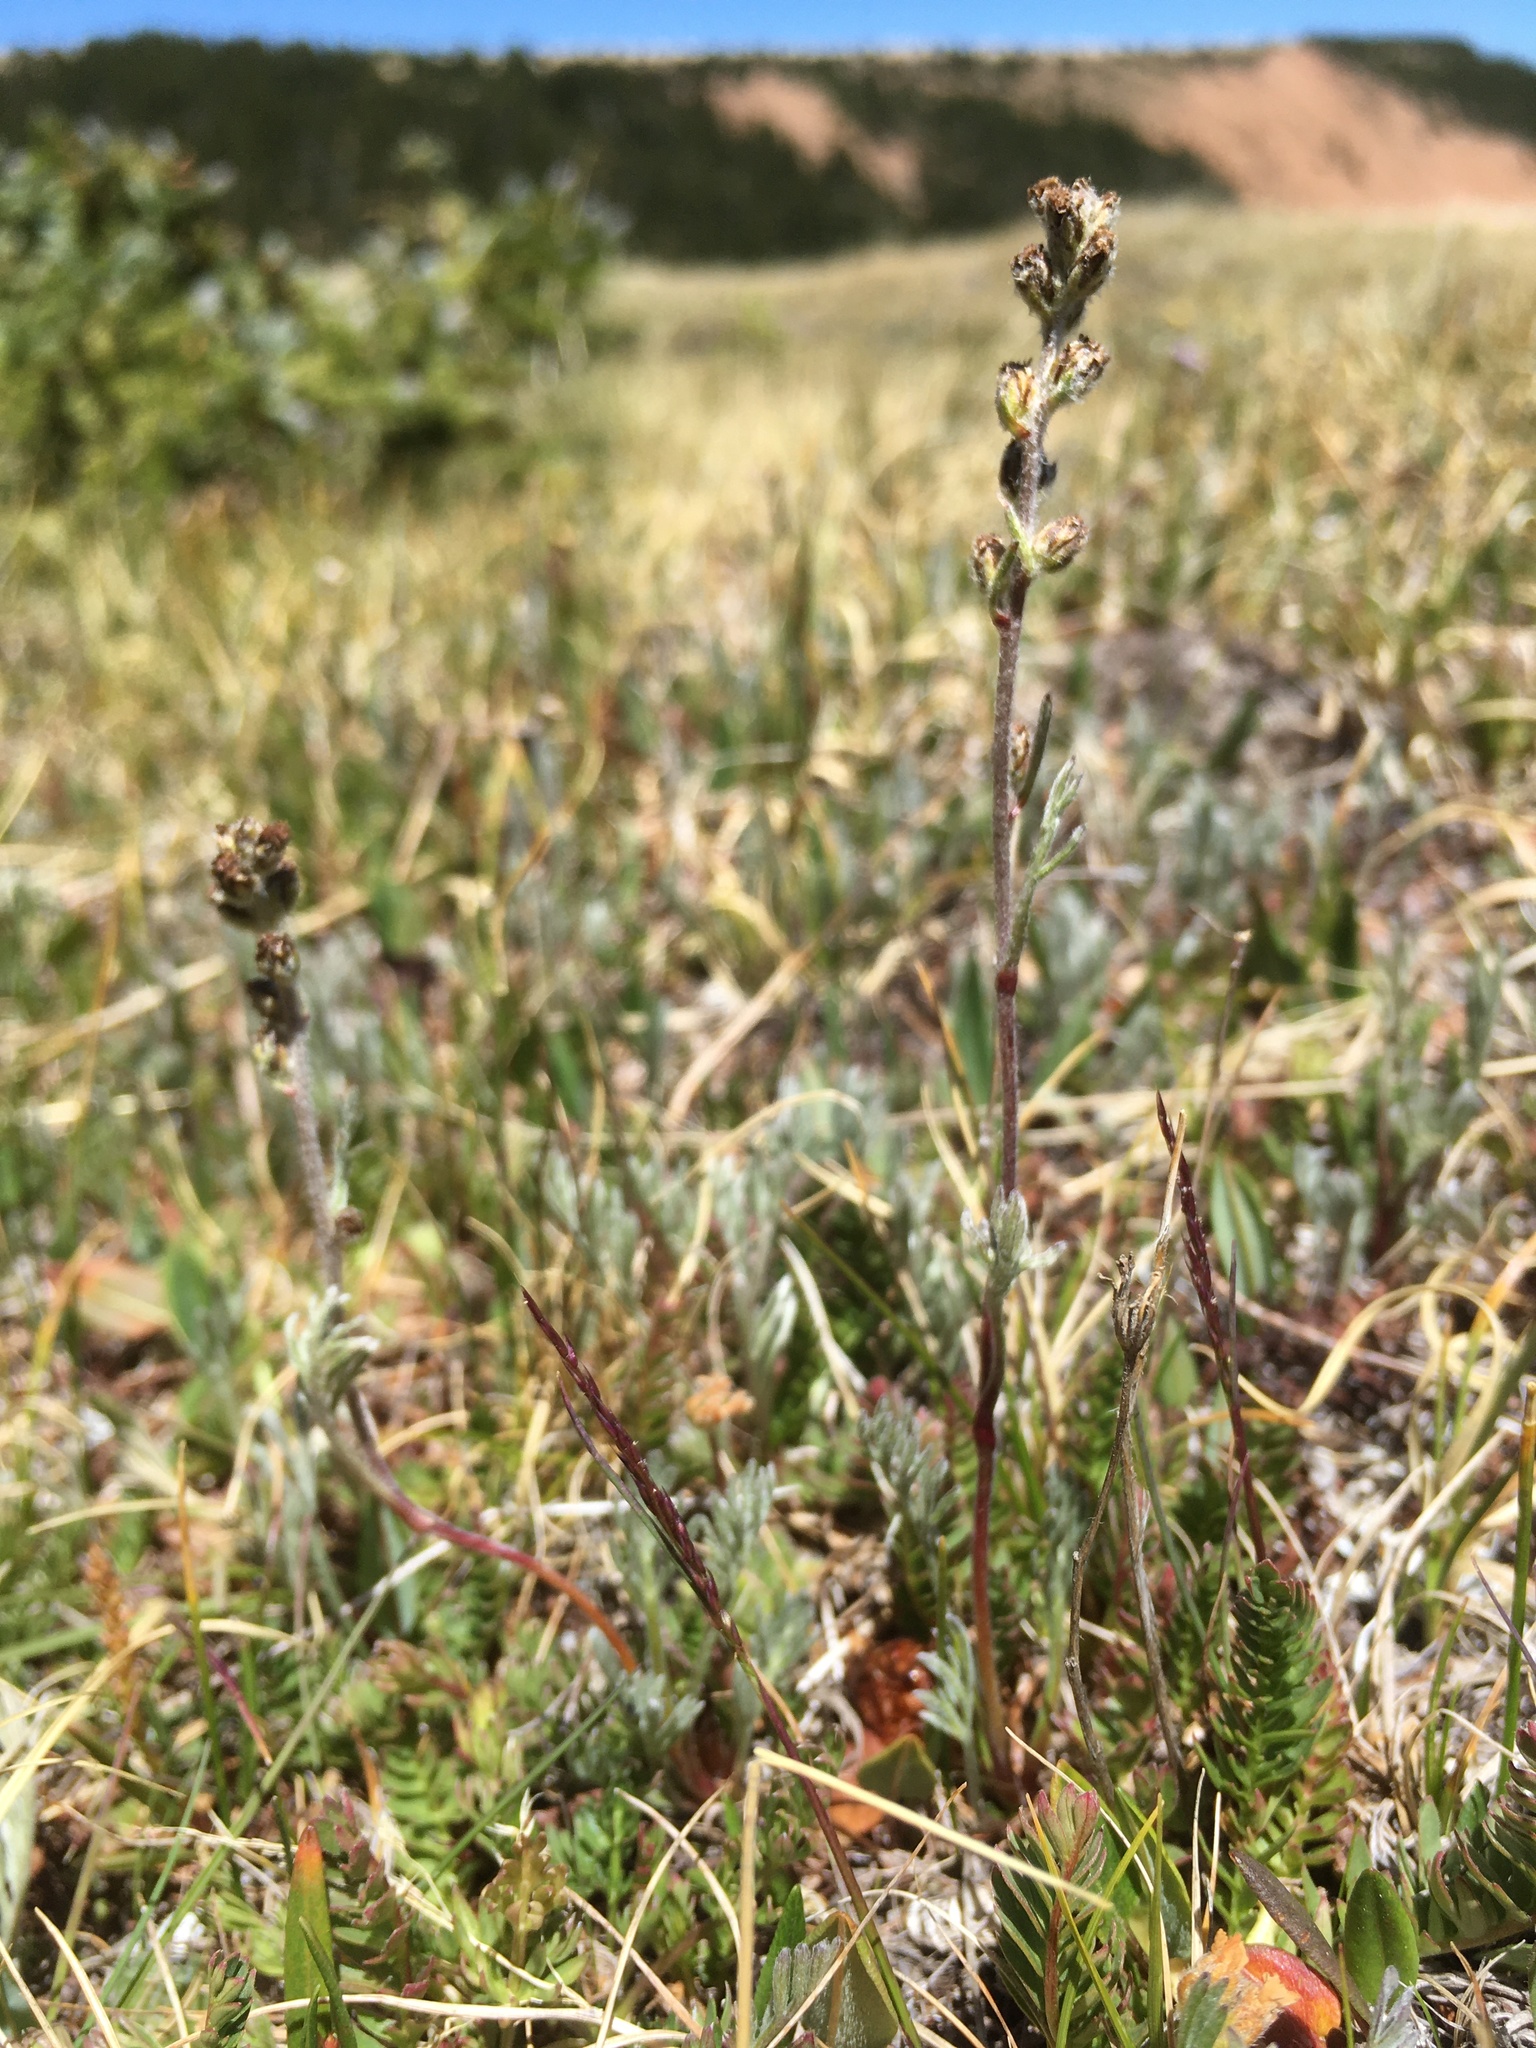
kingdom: Plantae
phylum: Tracheophyta
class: Magnoliopsida
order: Asterales
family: Asteraceae
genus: Artemisia
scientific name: Artemisia scopulorum
